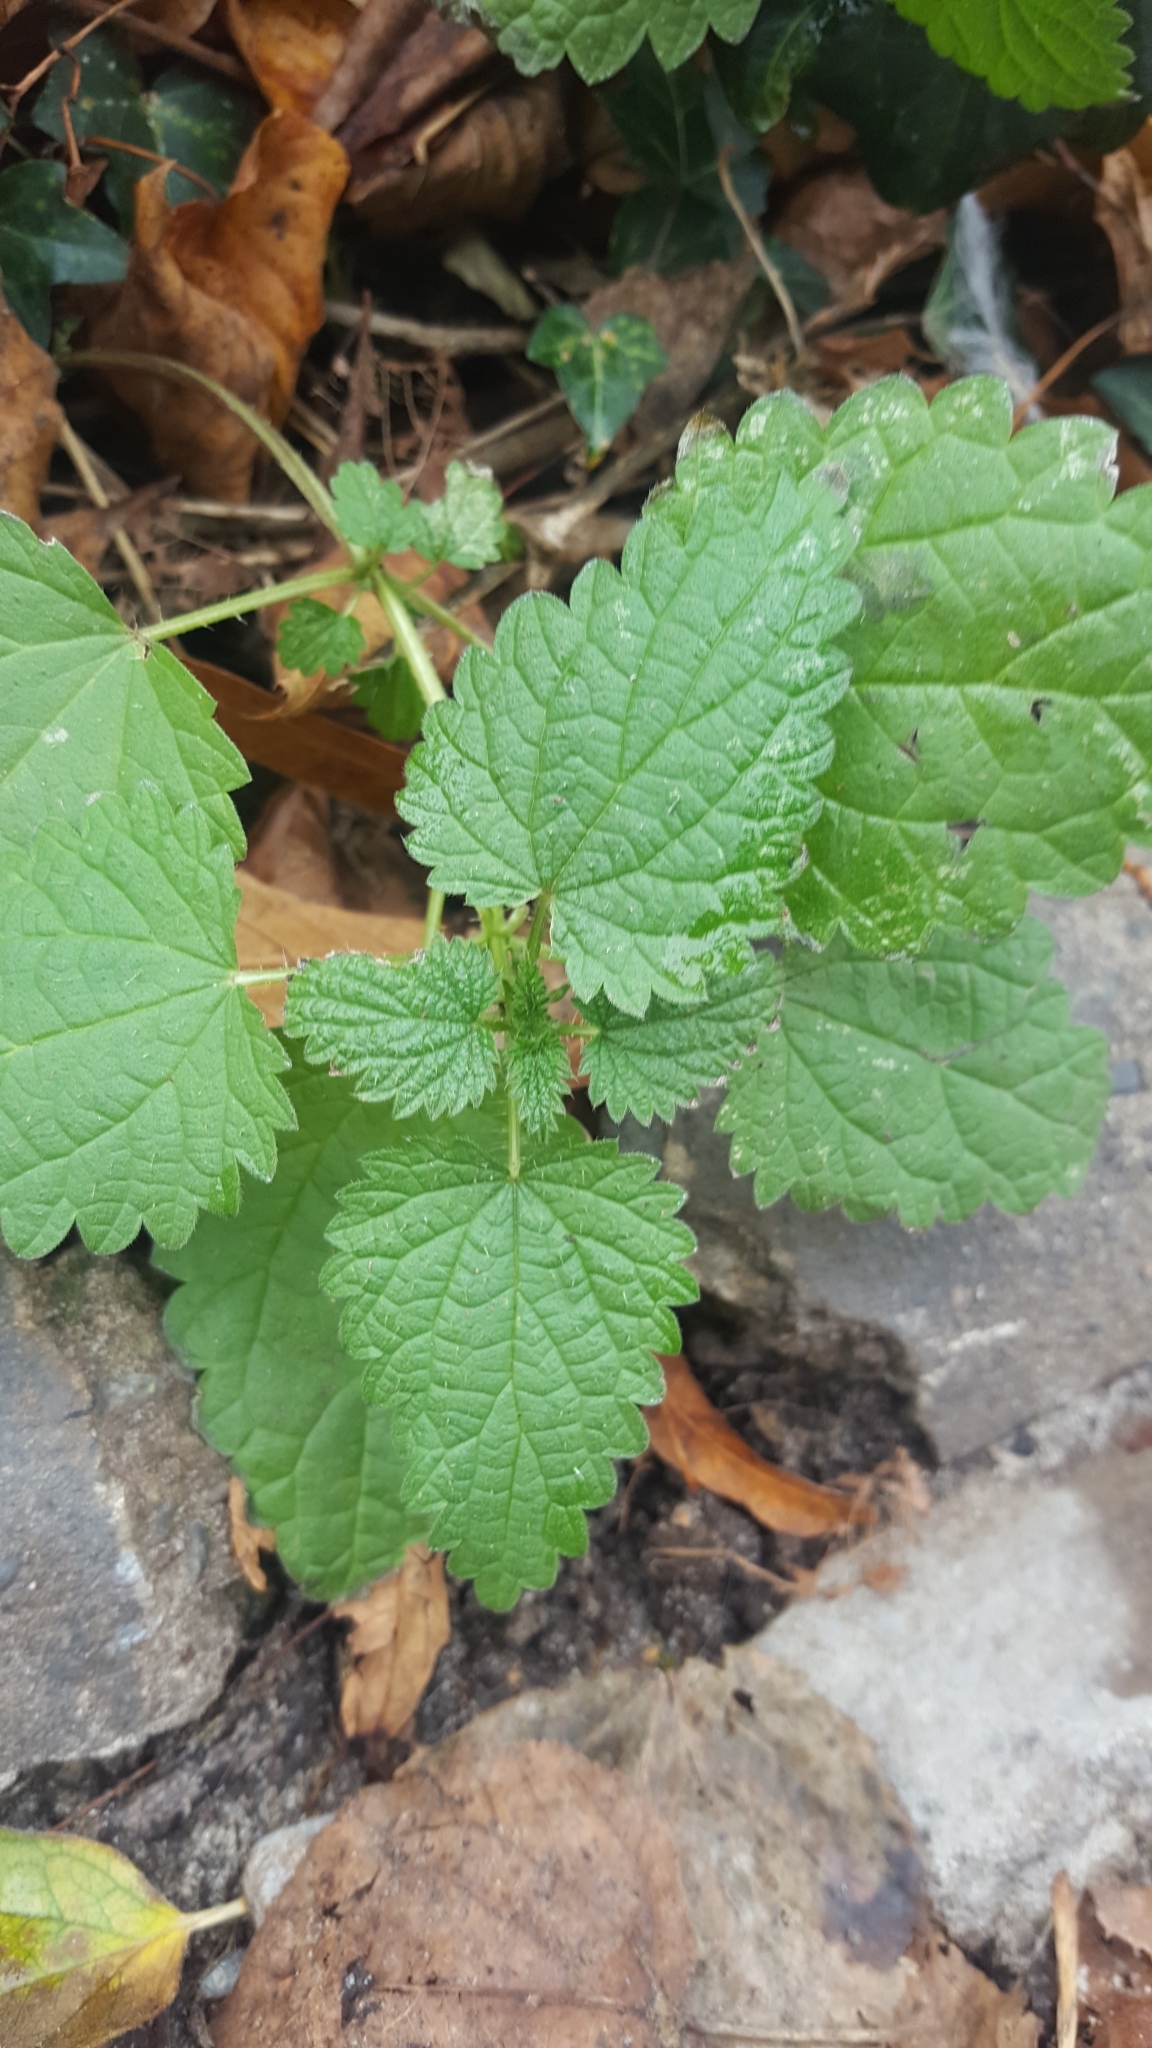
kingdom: Plantae
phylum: Tracheophyta
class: Magnoliopsida
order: Rosales
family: Urticaceae
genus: Urtica
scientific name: Urtica dioica
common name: Common nettle
